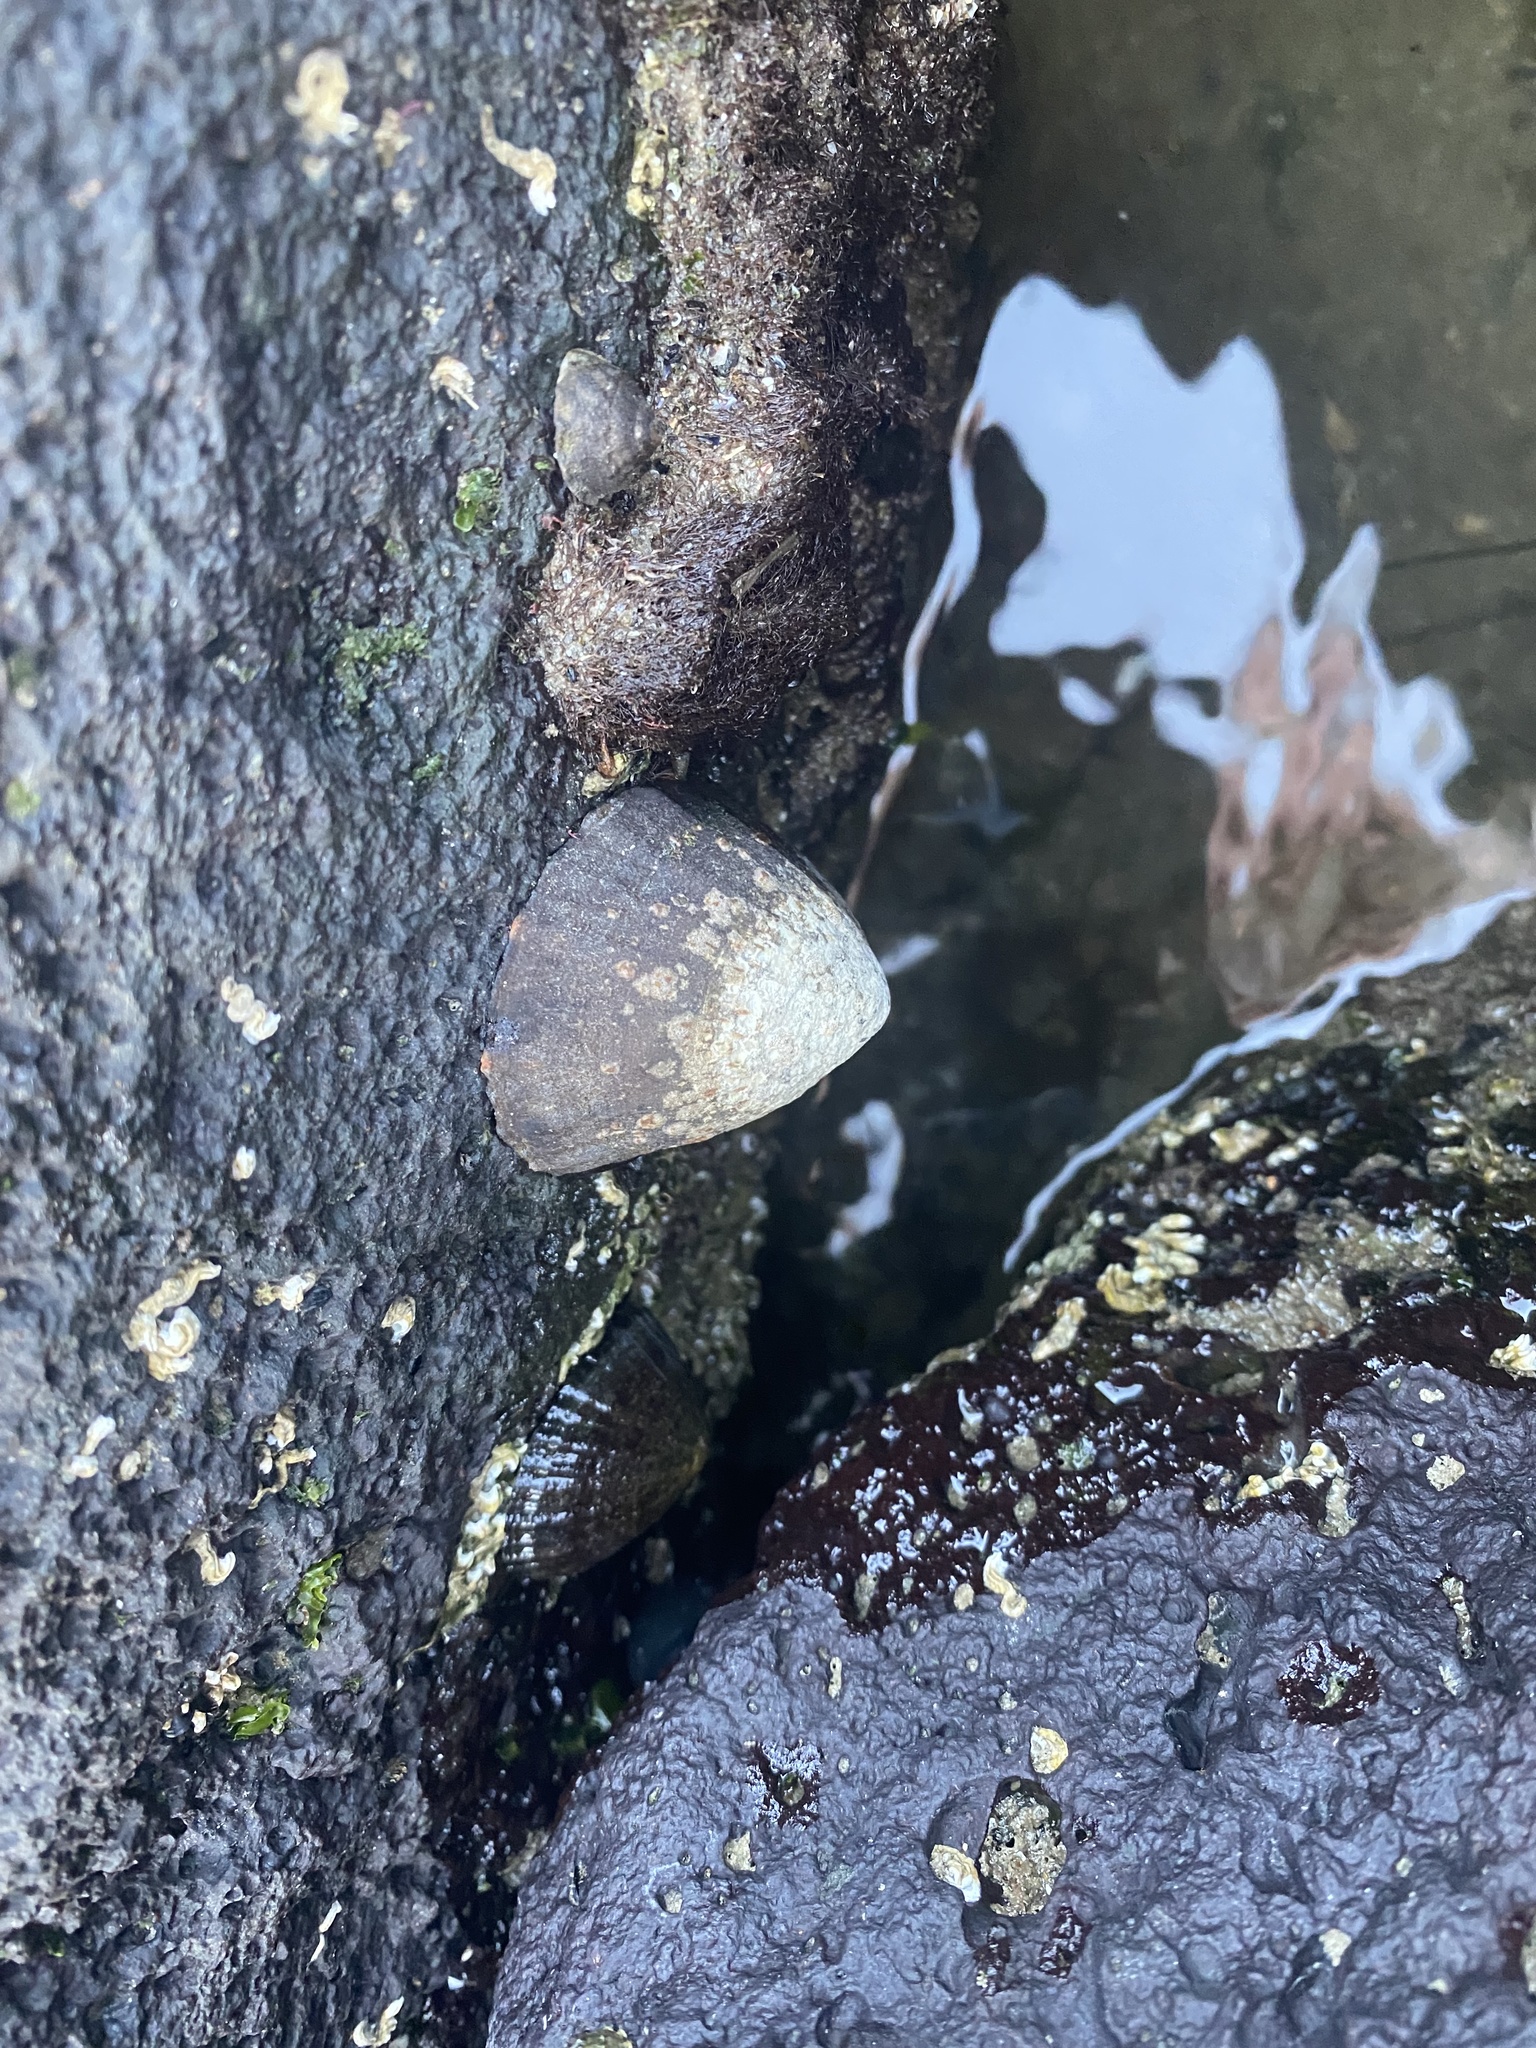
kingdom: Animalia
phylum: Mollusca
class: Gastropoda
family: Nacellidae
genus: Cellana
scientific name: Cellana tramoserica
